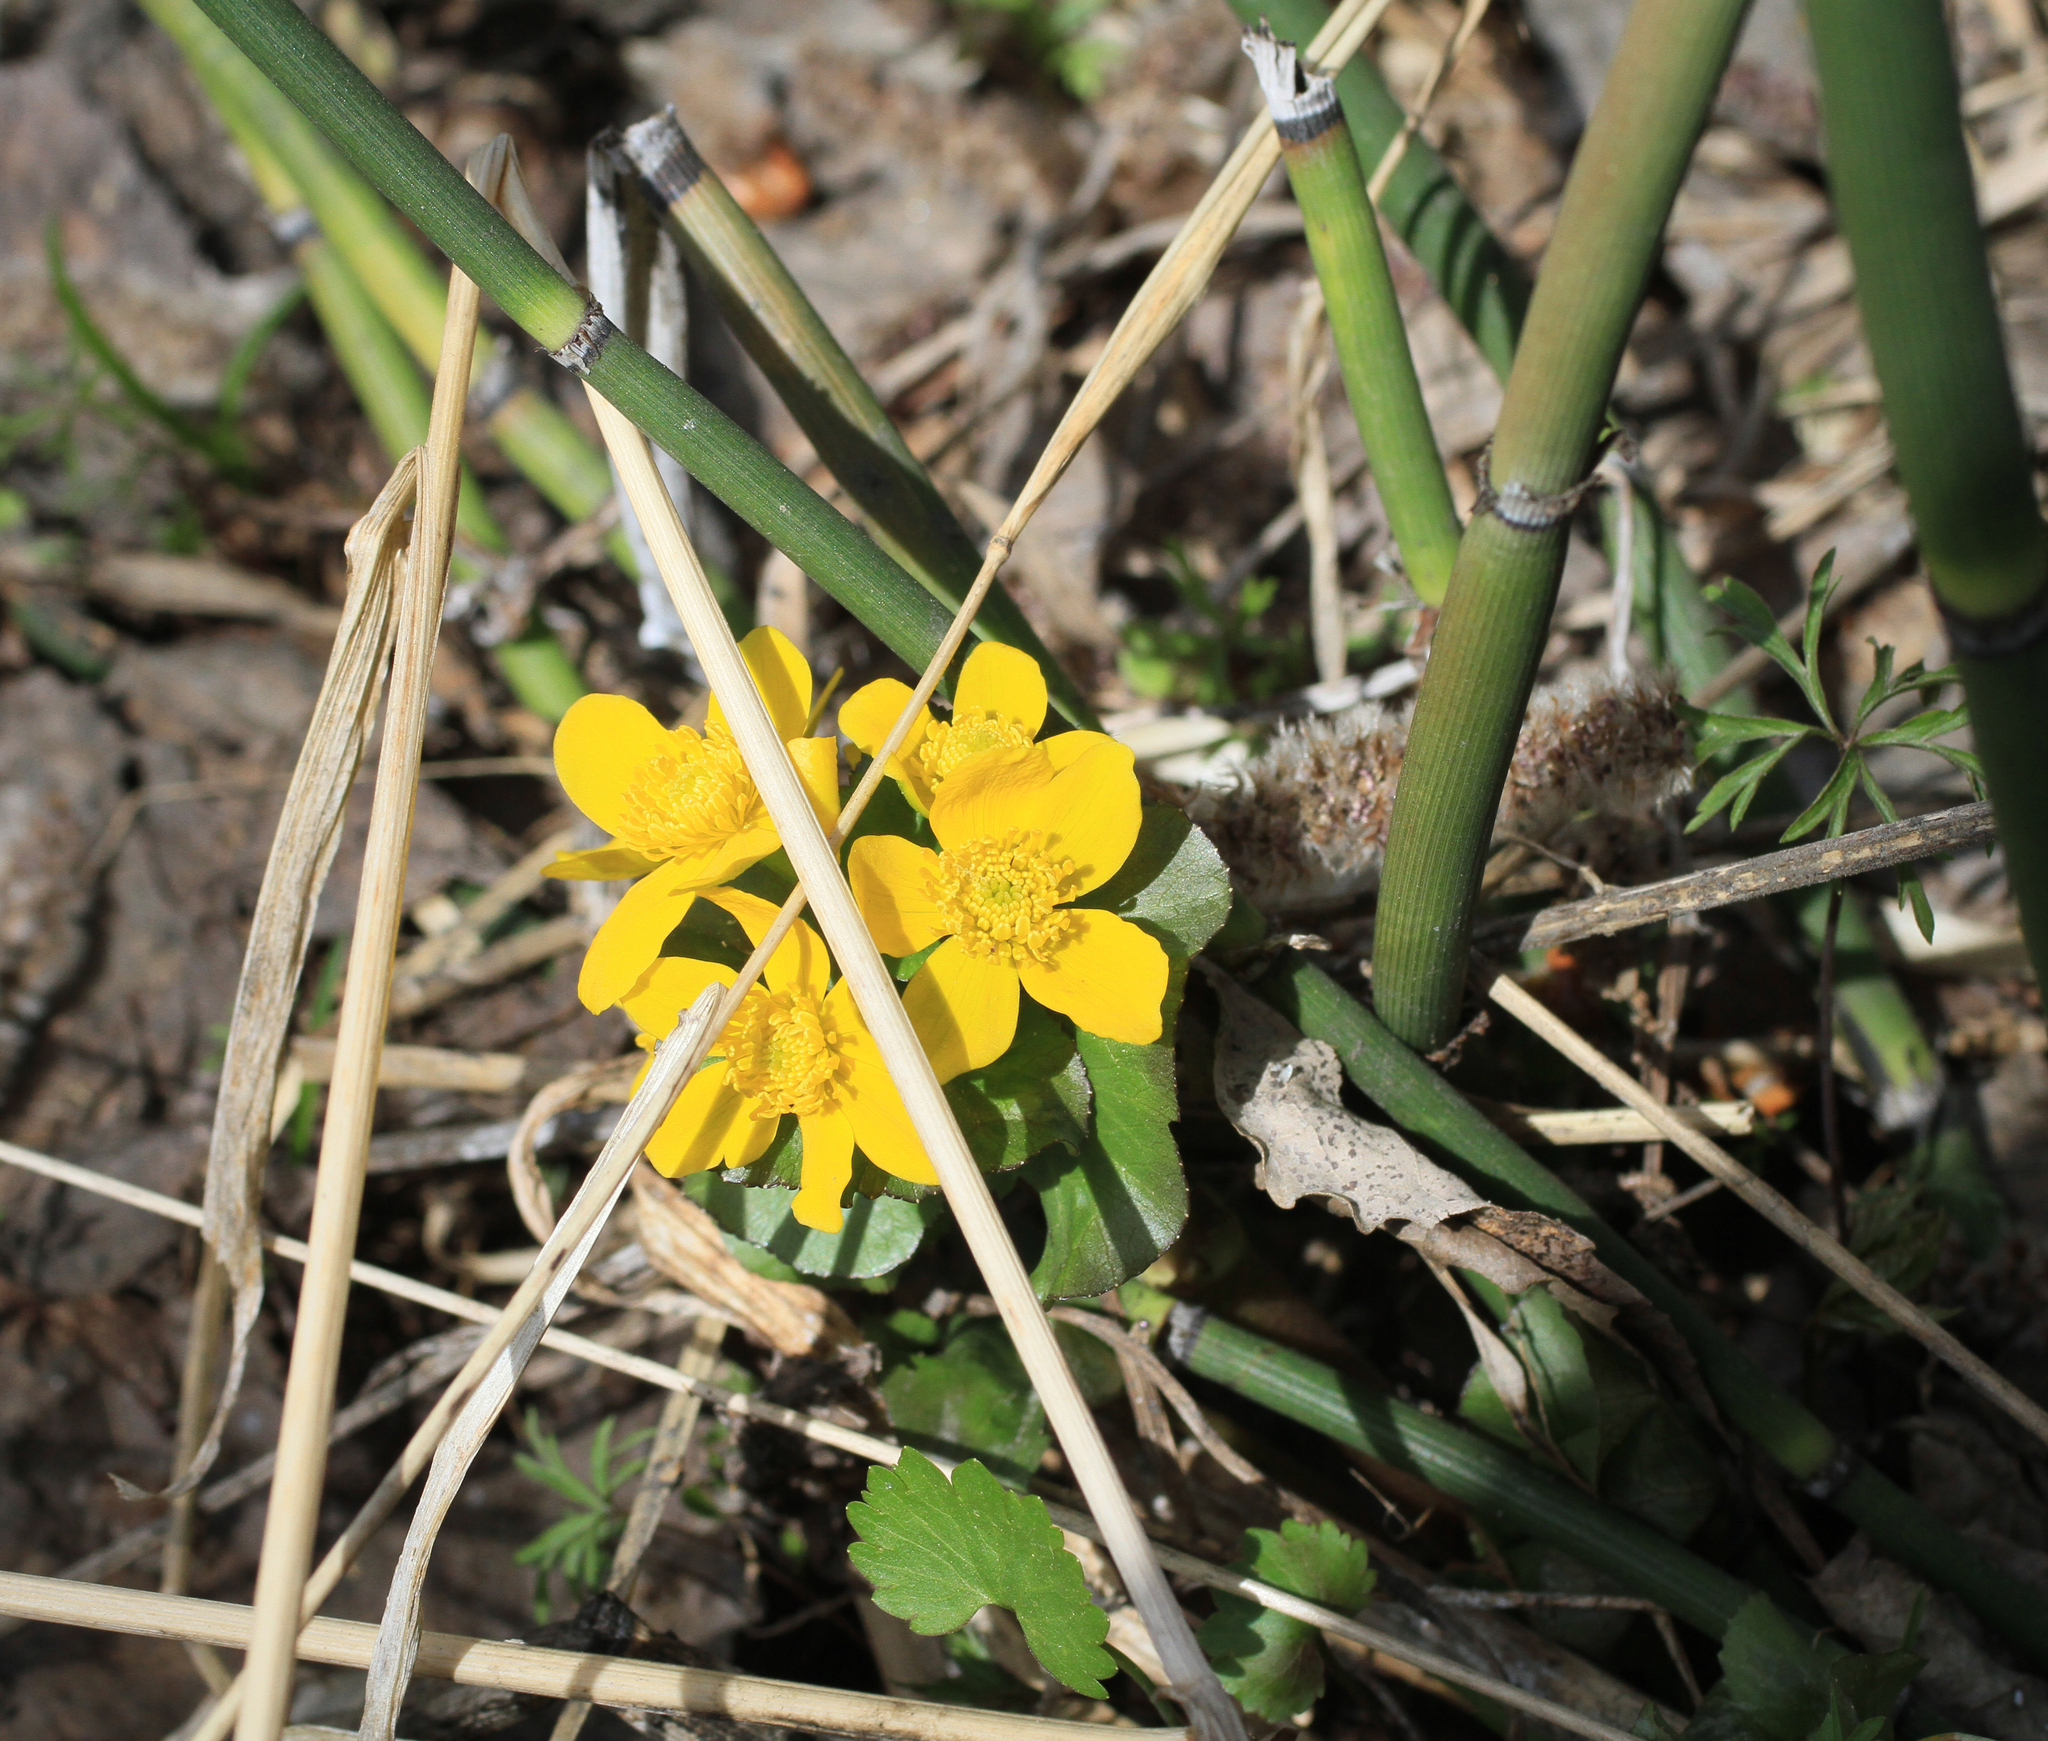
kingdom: Plantae
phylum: Tracheophyta
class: Magnoliopsida
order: Ranunculales
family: Ranunculaceae
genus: Caltha
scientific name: Caltha palustris
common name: Marsh marigold
